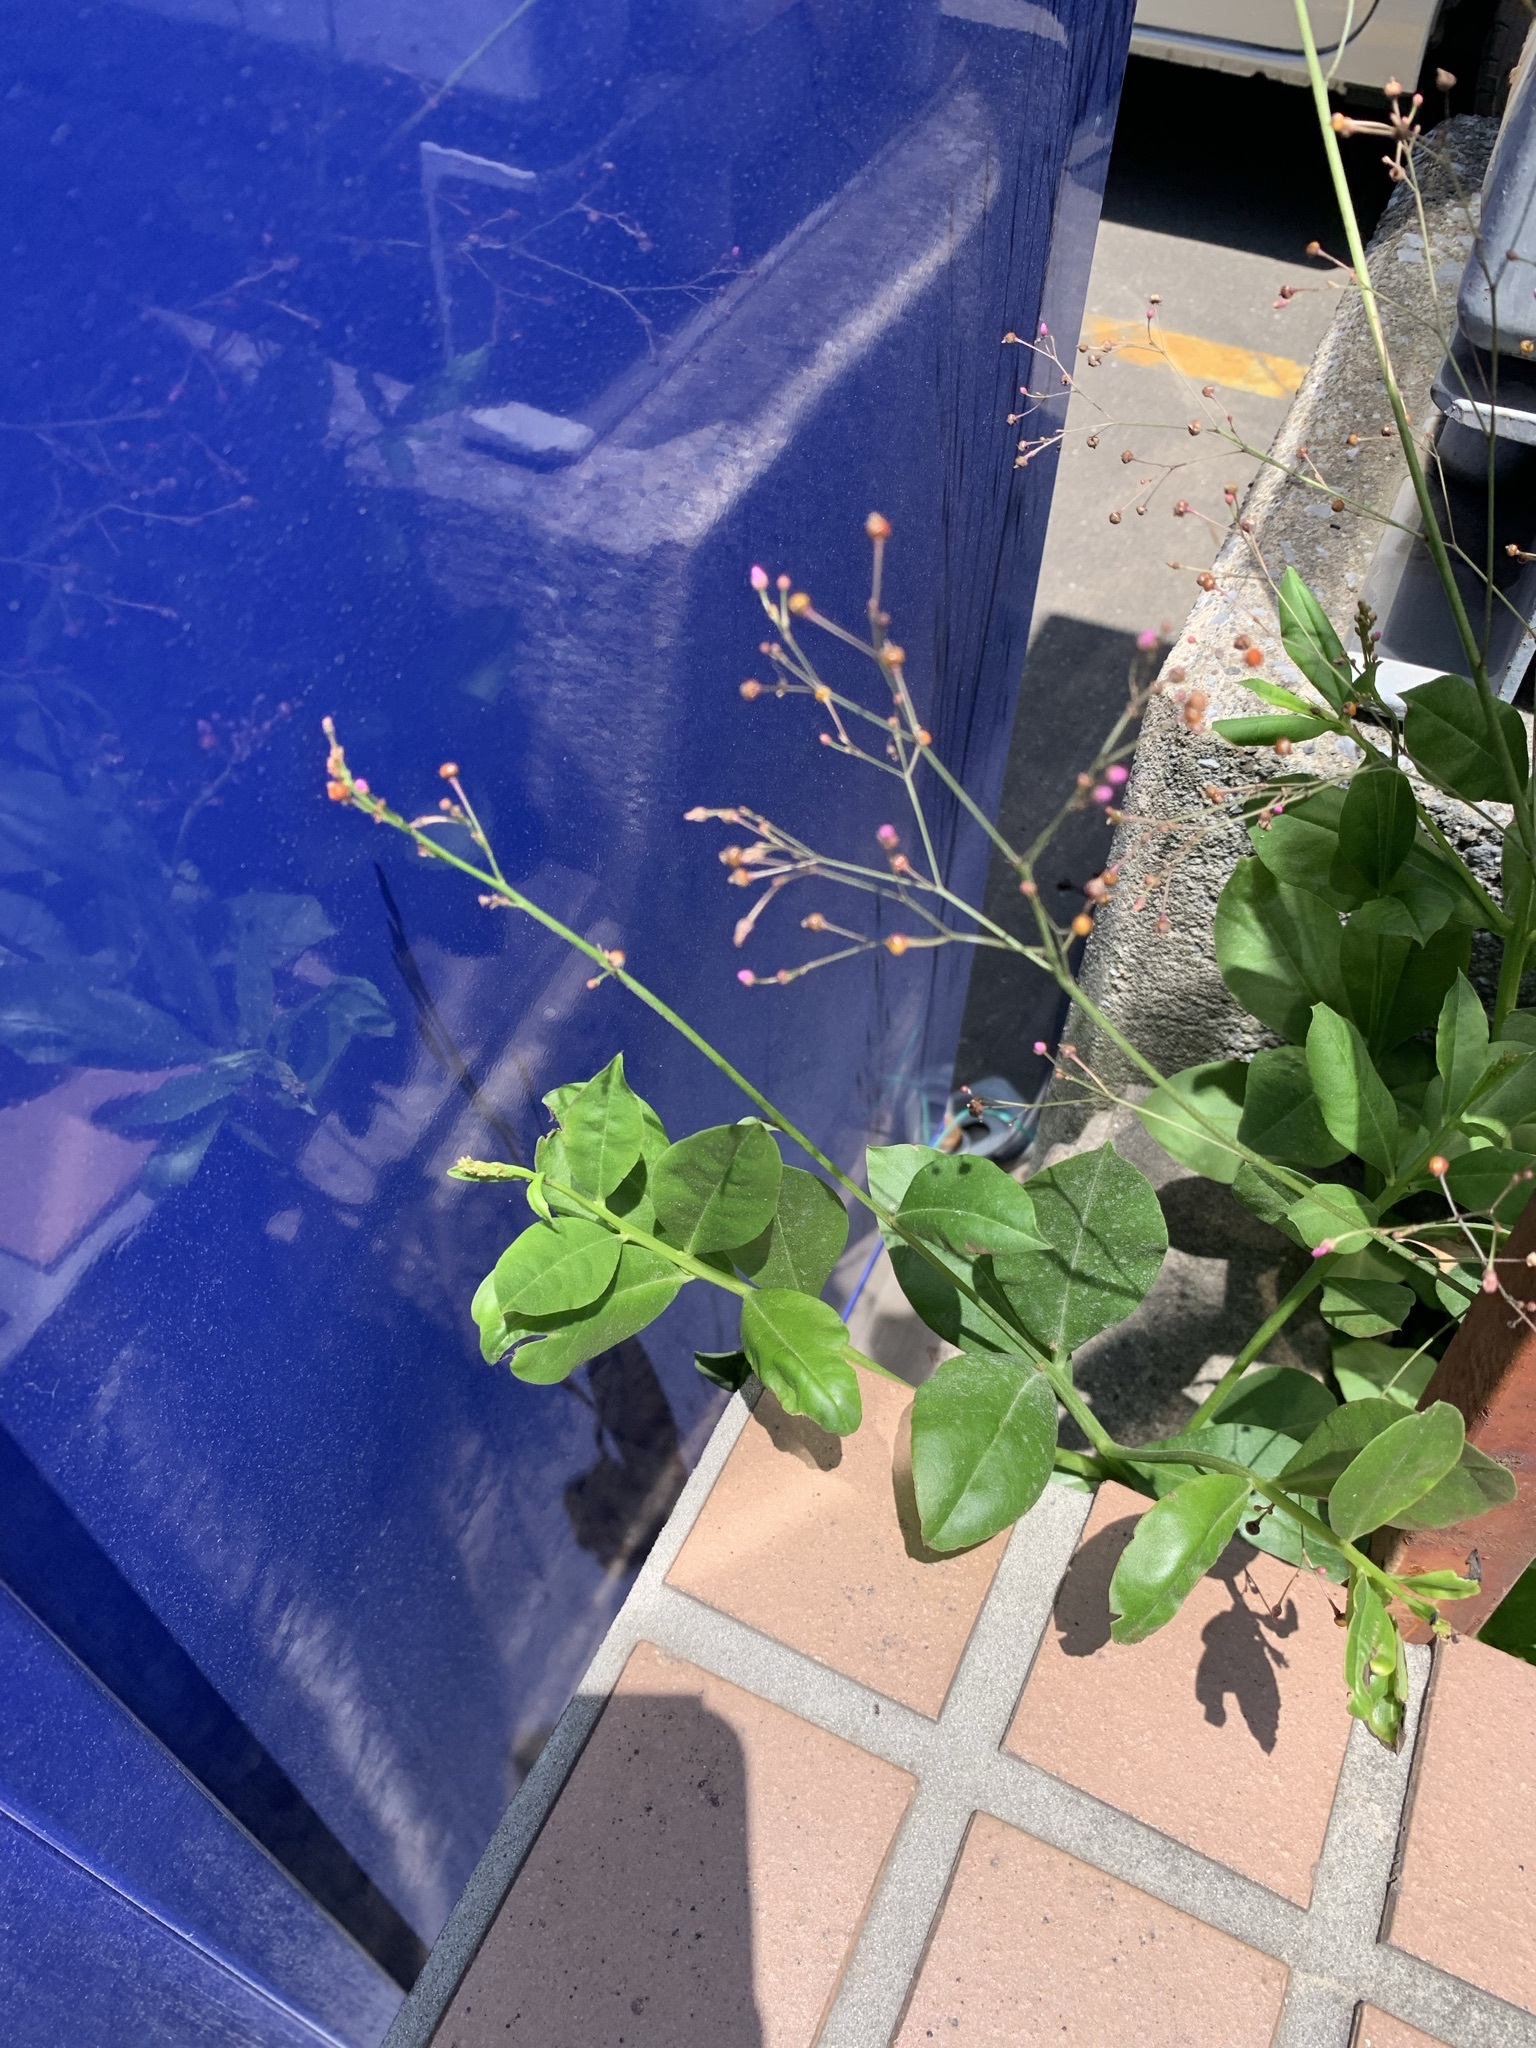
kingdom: Plantae
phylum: Tracheophyta
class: Magnoliopsida
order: Caryophyllales
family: Talinaceae
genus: Talinum
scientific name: Talinum paniculatum
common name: Jewels of opar
